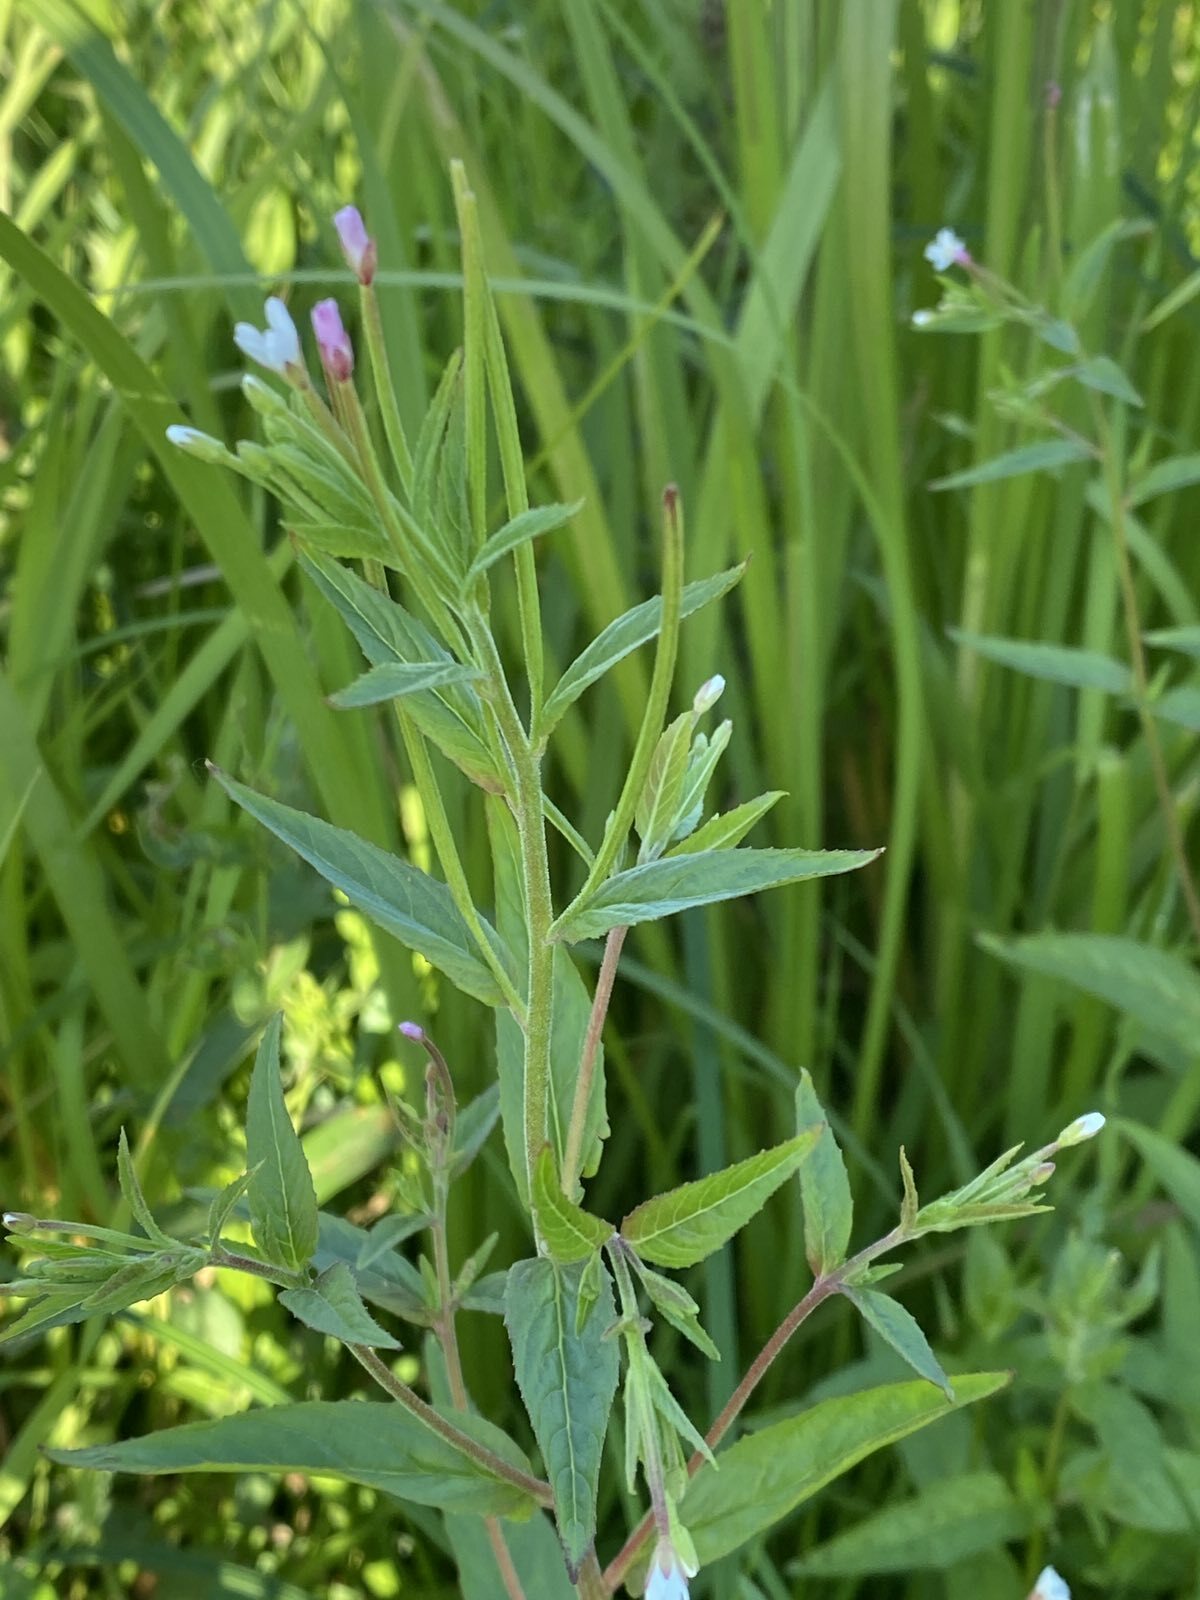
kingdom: Plantae
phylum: Tracheophyta
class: Magnoliopsida
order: Myrtales
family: Onagraceae
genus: Epilobium
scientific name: Epilobium ciliatum
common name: American willowherb
